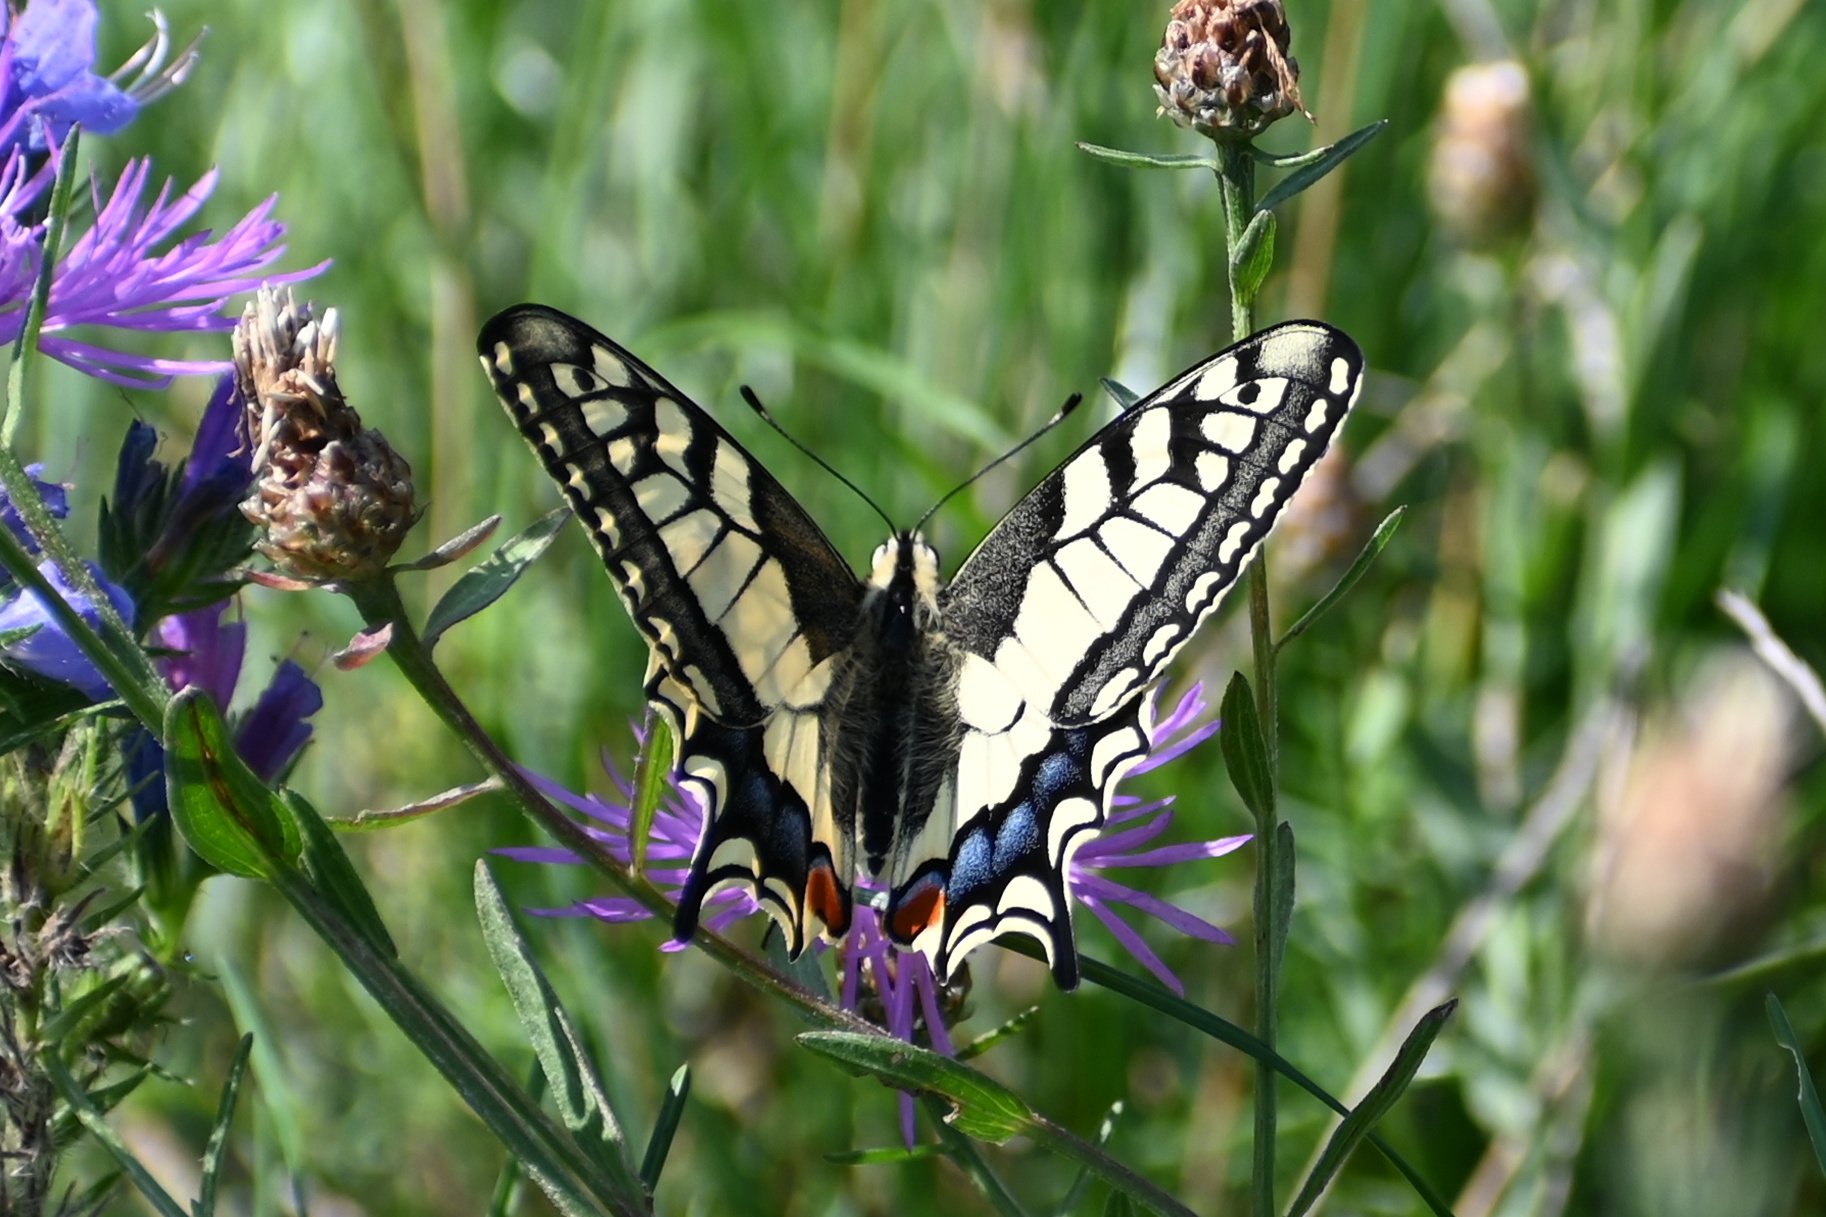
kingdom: Animalia
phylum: Arthropoda
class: Insecta
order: Lepidoptera
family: Papilionidae
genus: Papilio
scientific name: Papilio machaon
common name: Swallowtail
